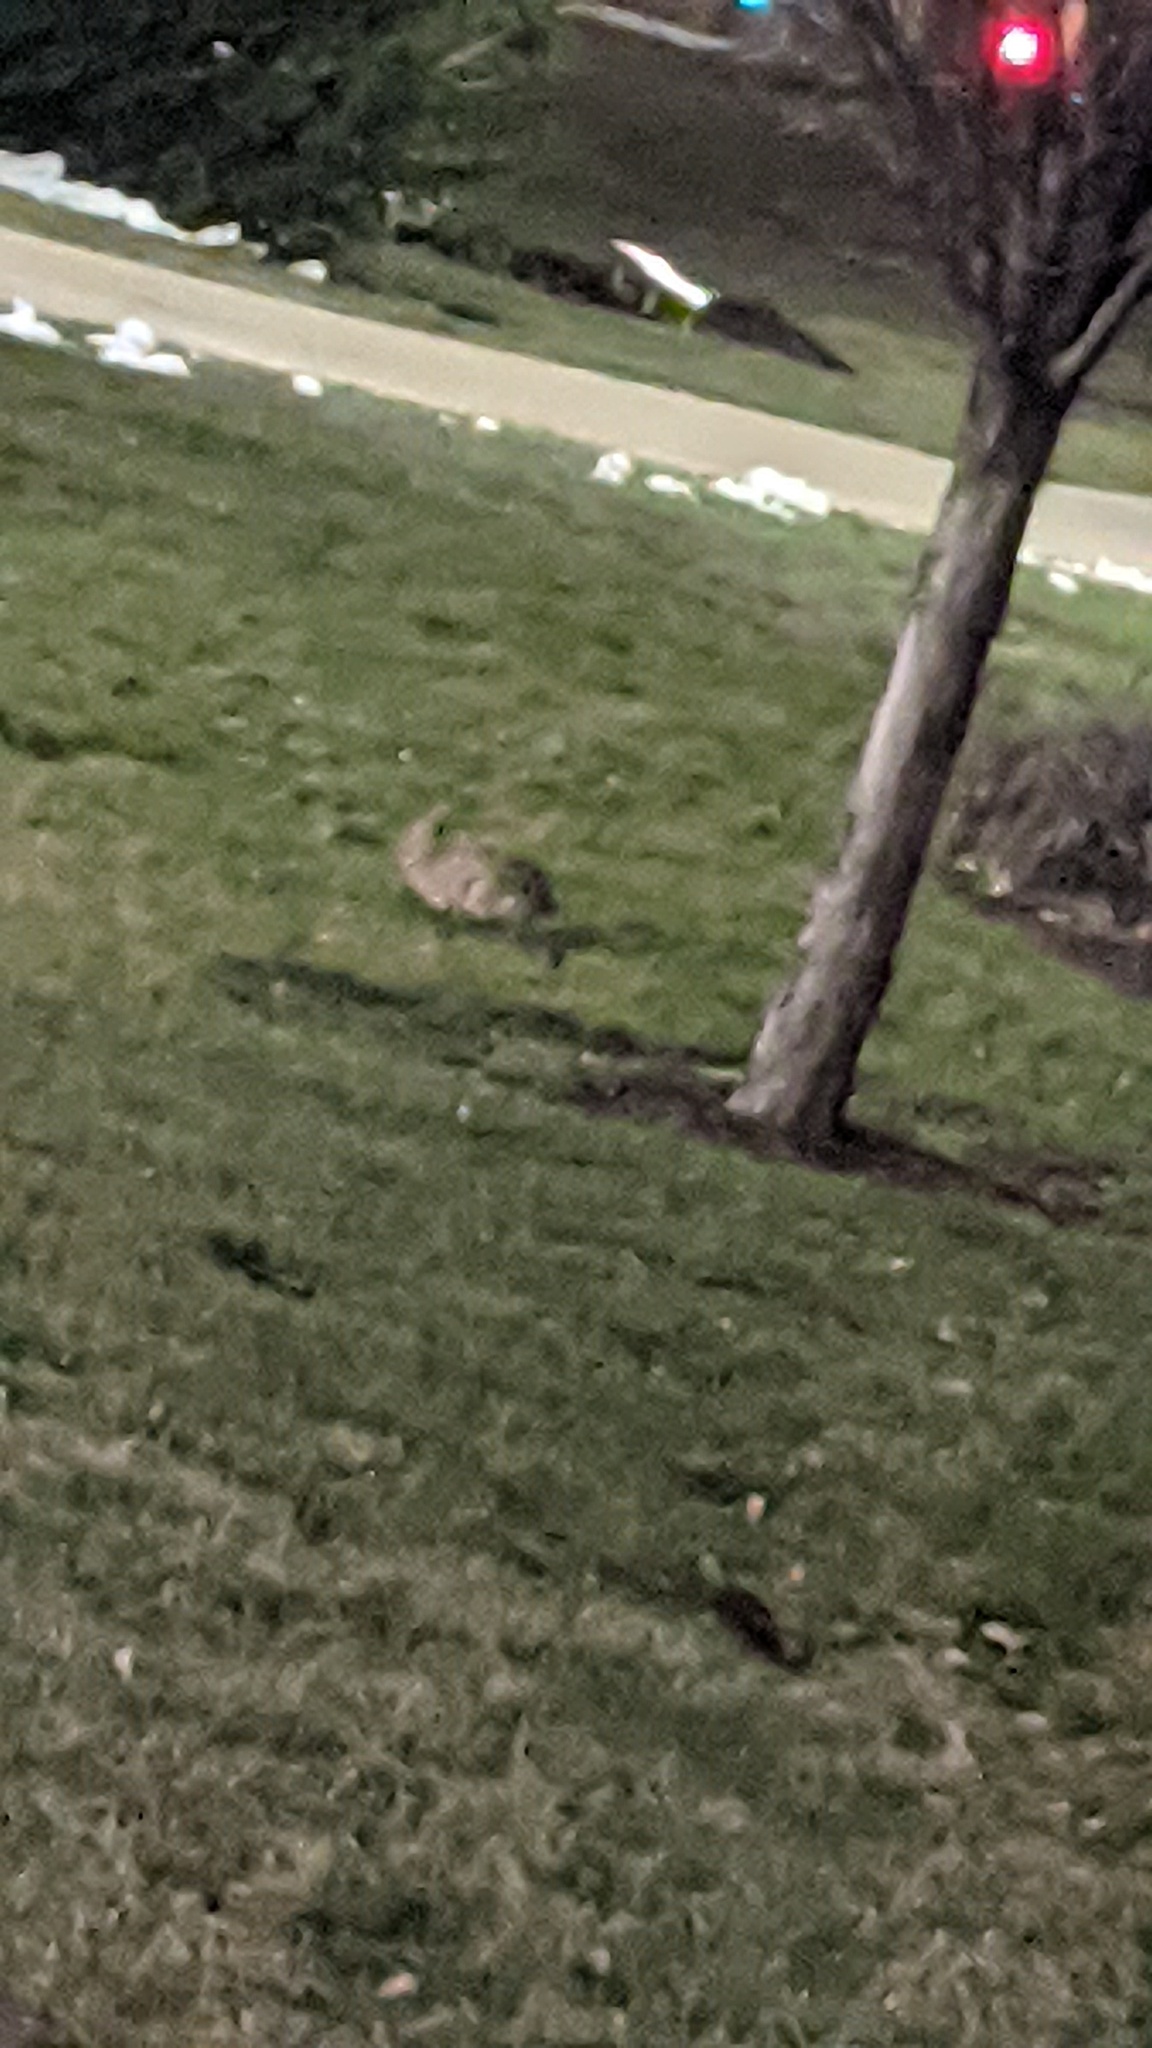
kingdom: Animalia
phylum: Chordata
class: Mammalia
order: Lagomorpha
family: Leporidae
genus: Sylvilagus
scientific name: Sylvilagus floridanus
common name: Eastern cottontail
